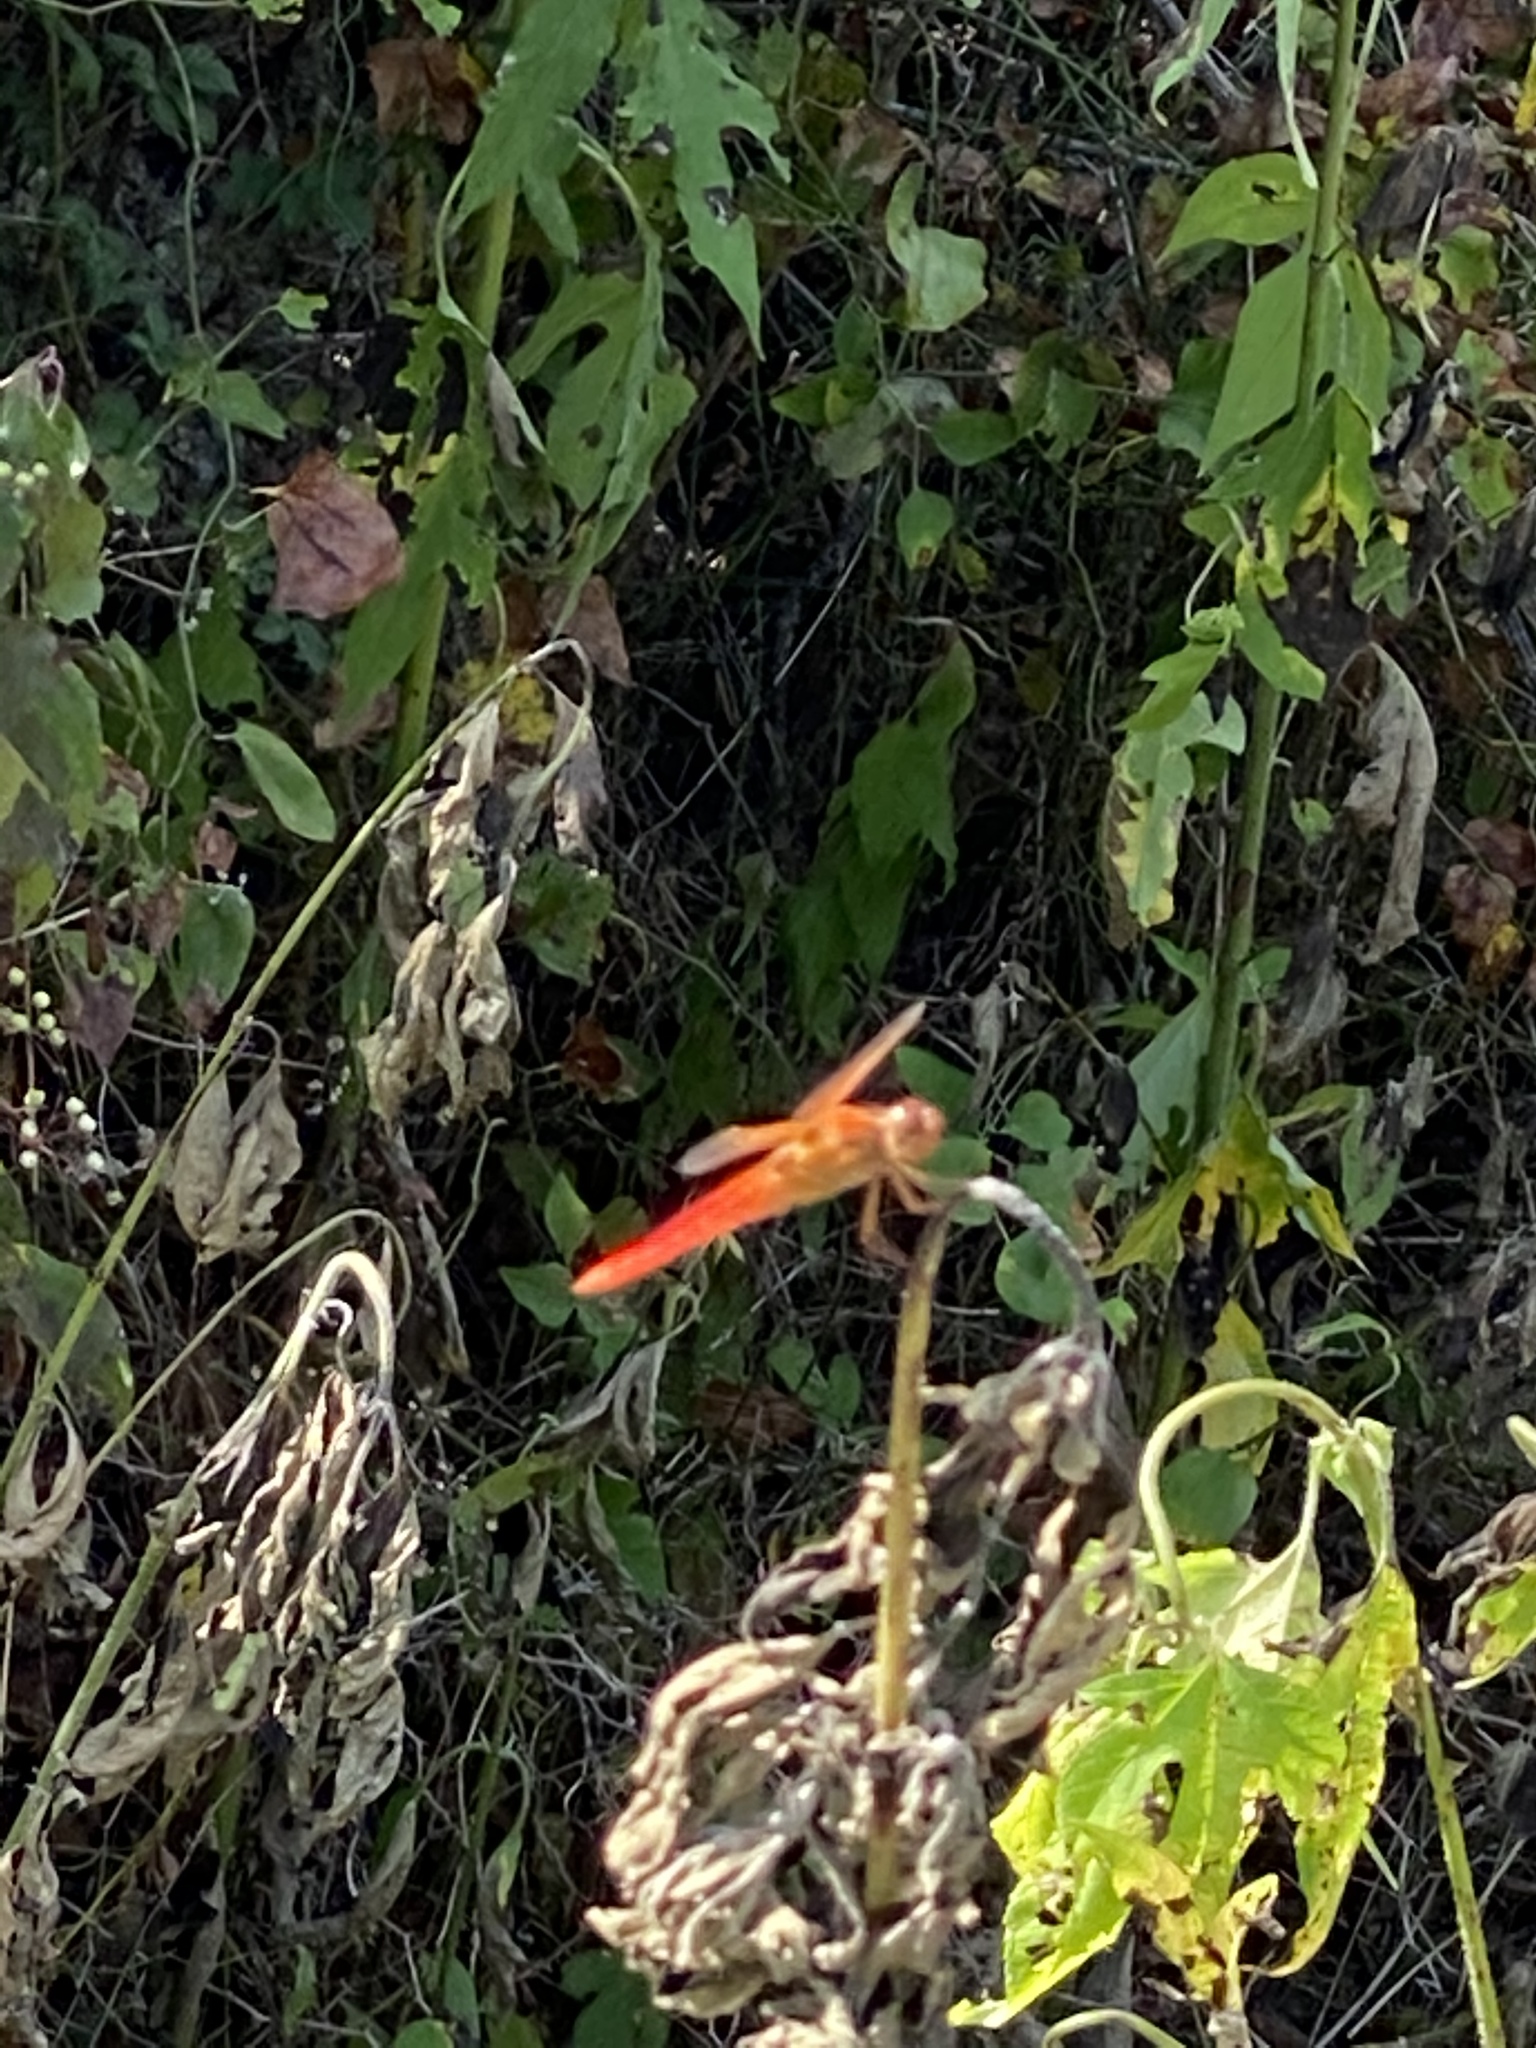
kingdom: Animalia
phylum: Arthropoda
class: Insecta
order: Odonata
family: Libellulidae
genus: Libellula
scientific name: Libellula croceipennis
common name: Neon skimmer
